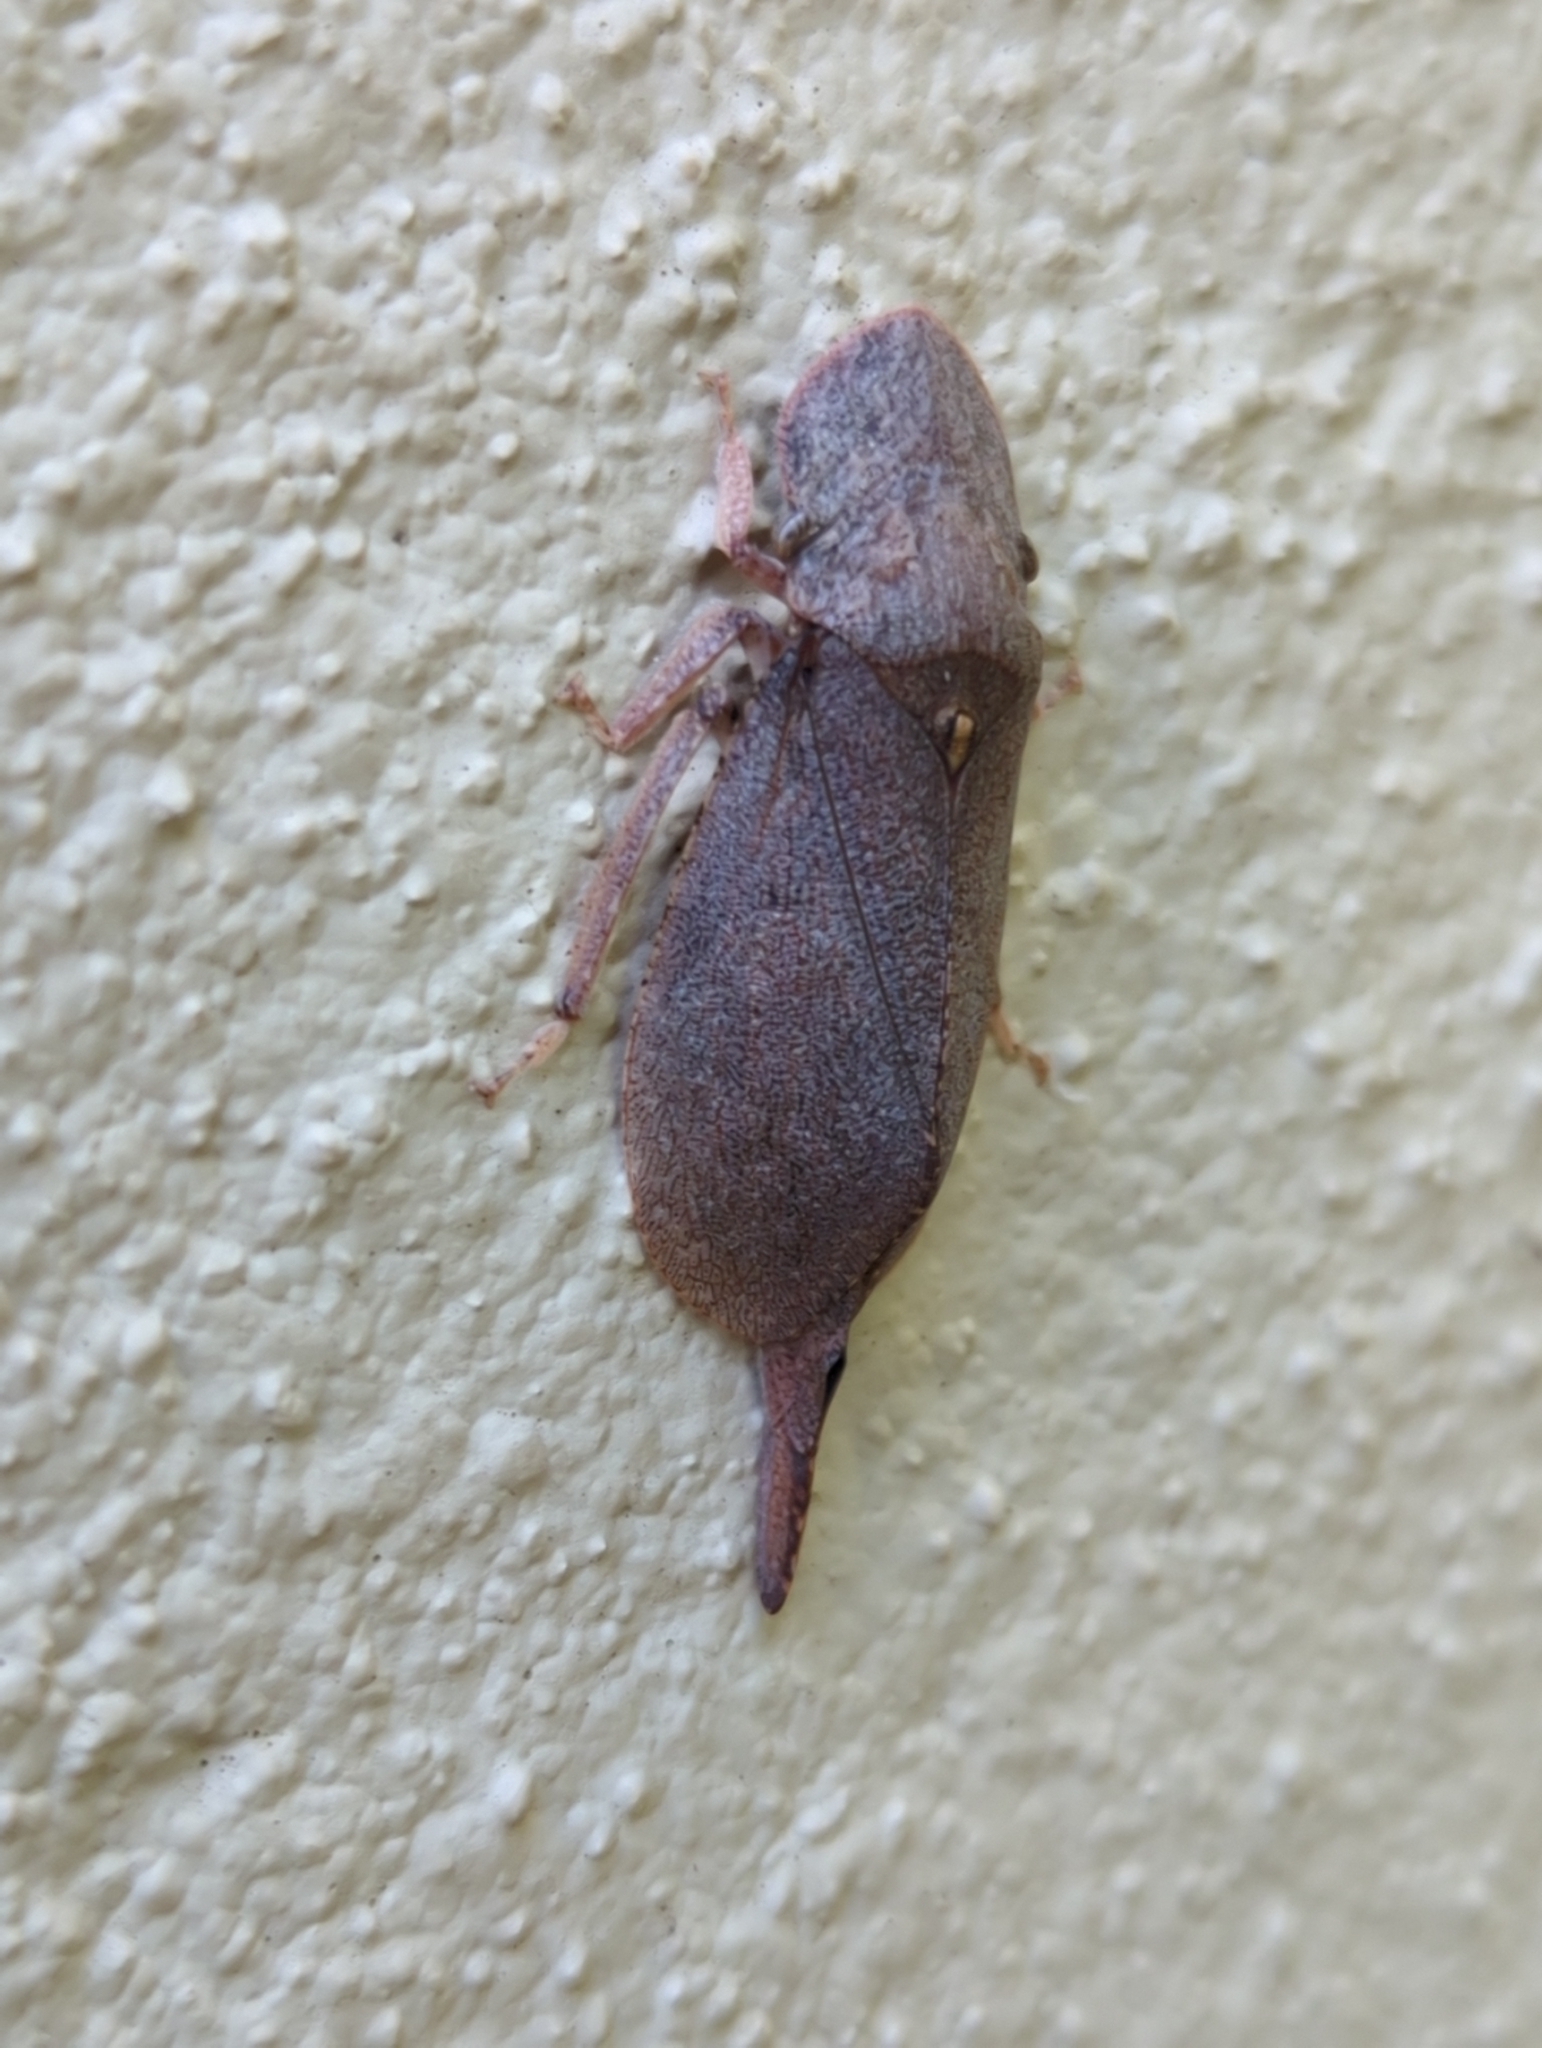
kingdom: Animalia
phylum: Arthropoda
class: Insecta
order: Hemiptera
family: Cicadellidae
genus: Ledromorpha
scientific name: Ledromorpha planirostris
